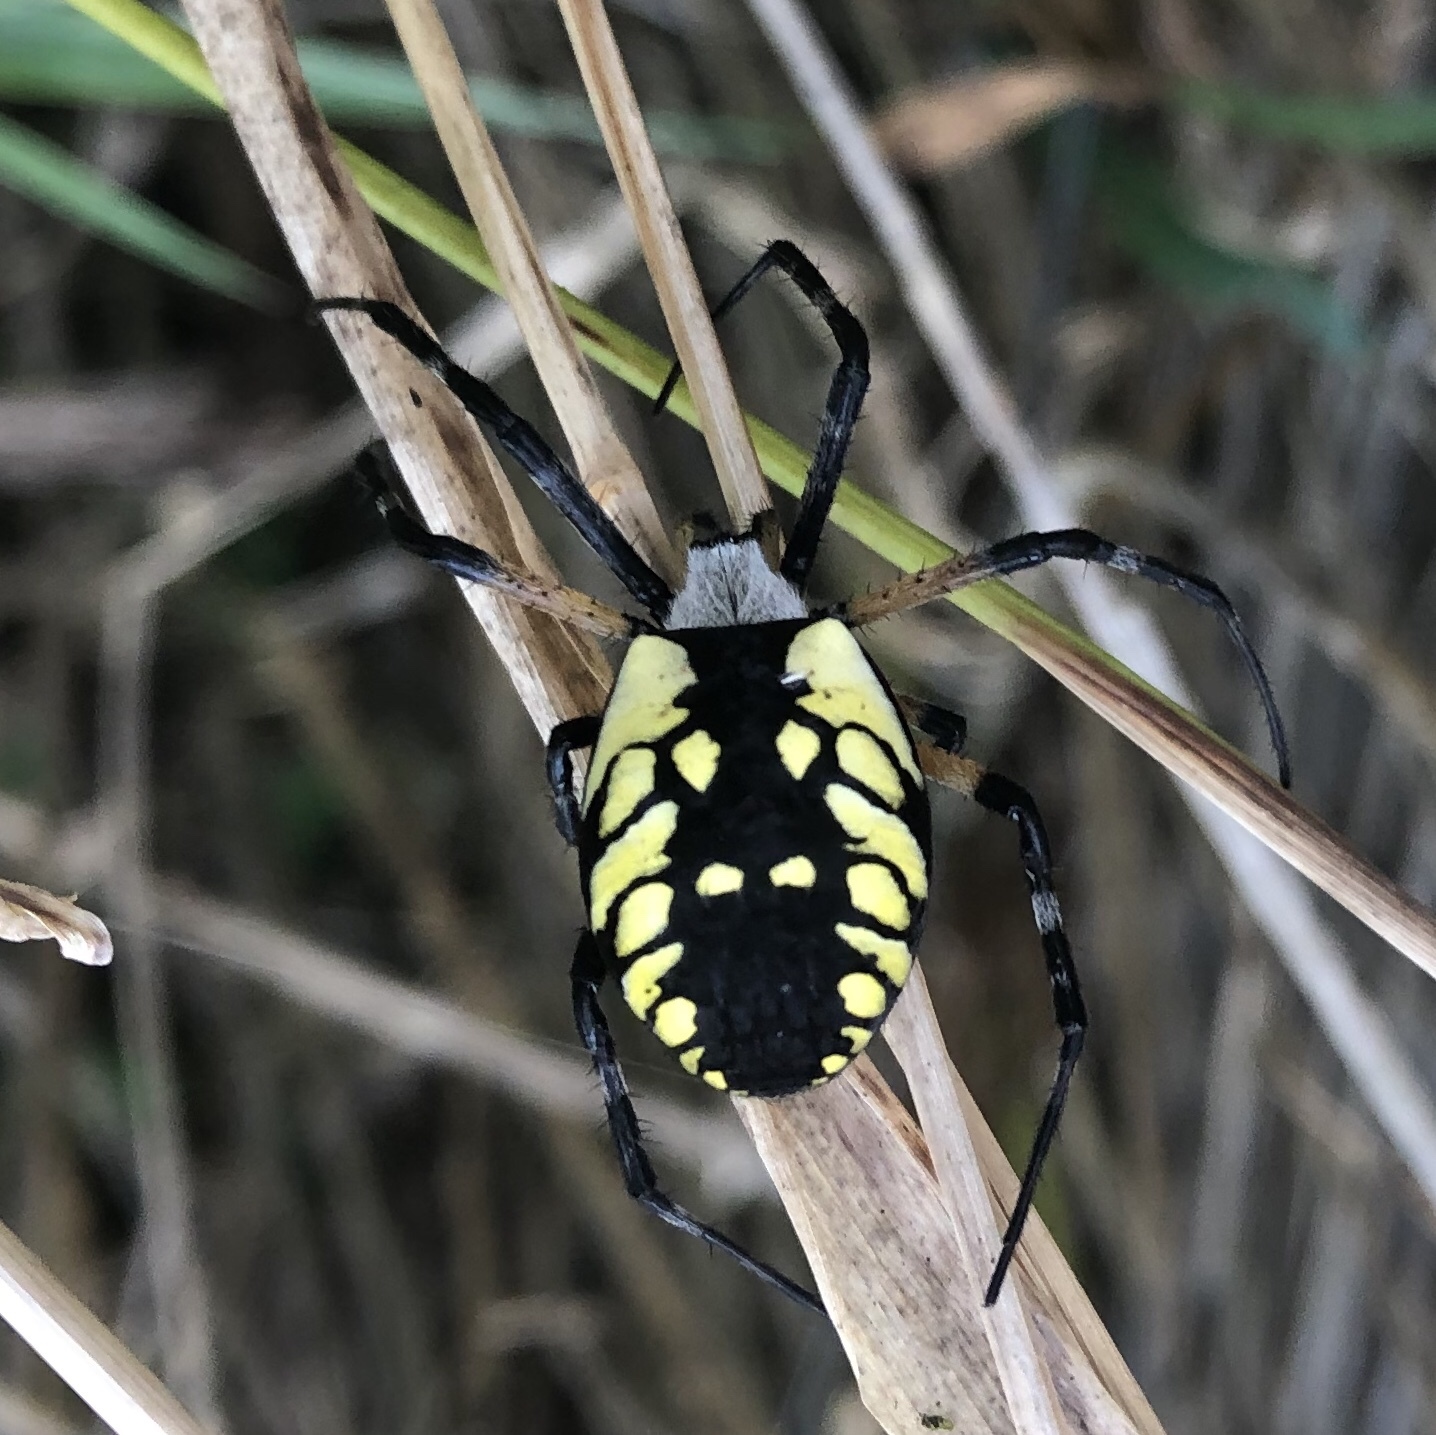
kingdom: Animalia
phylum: Arthropoda
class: Arachnida
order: Araneae
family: Araneidae
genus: Argiope
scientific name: Argiope aurantia
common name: Orb weavers
